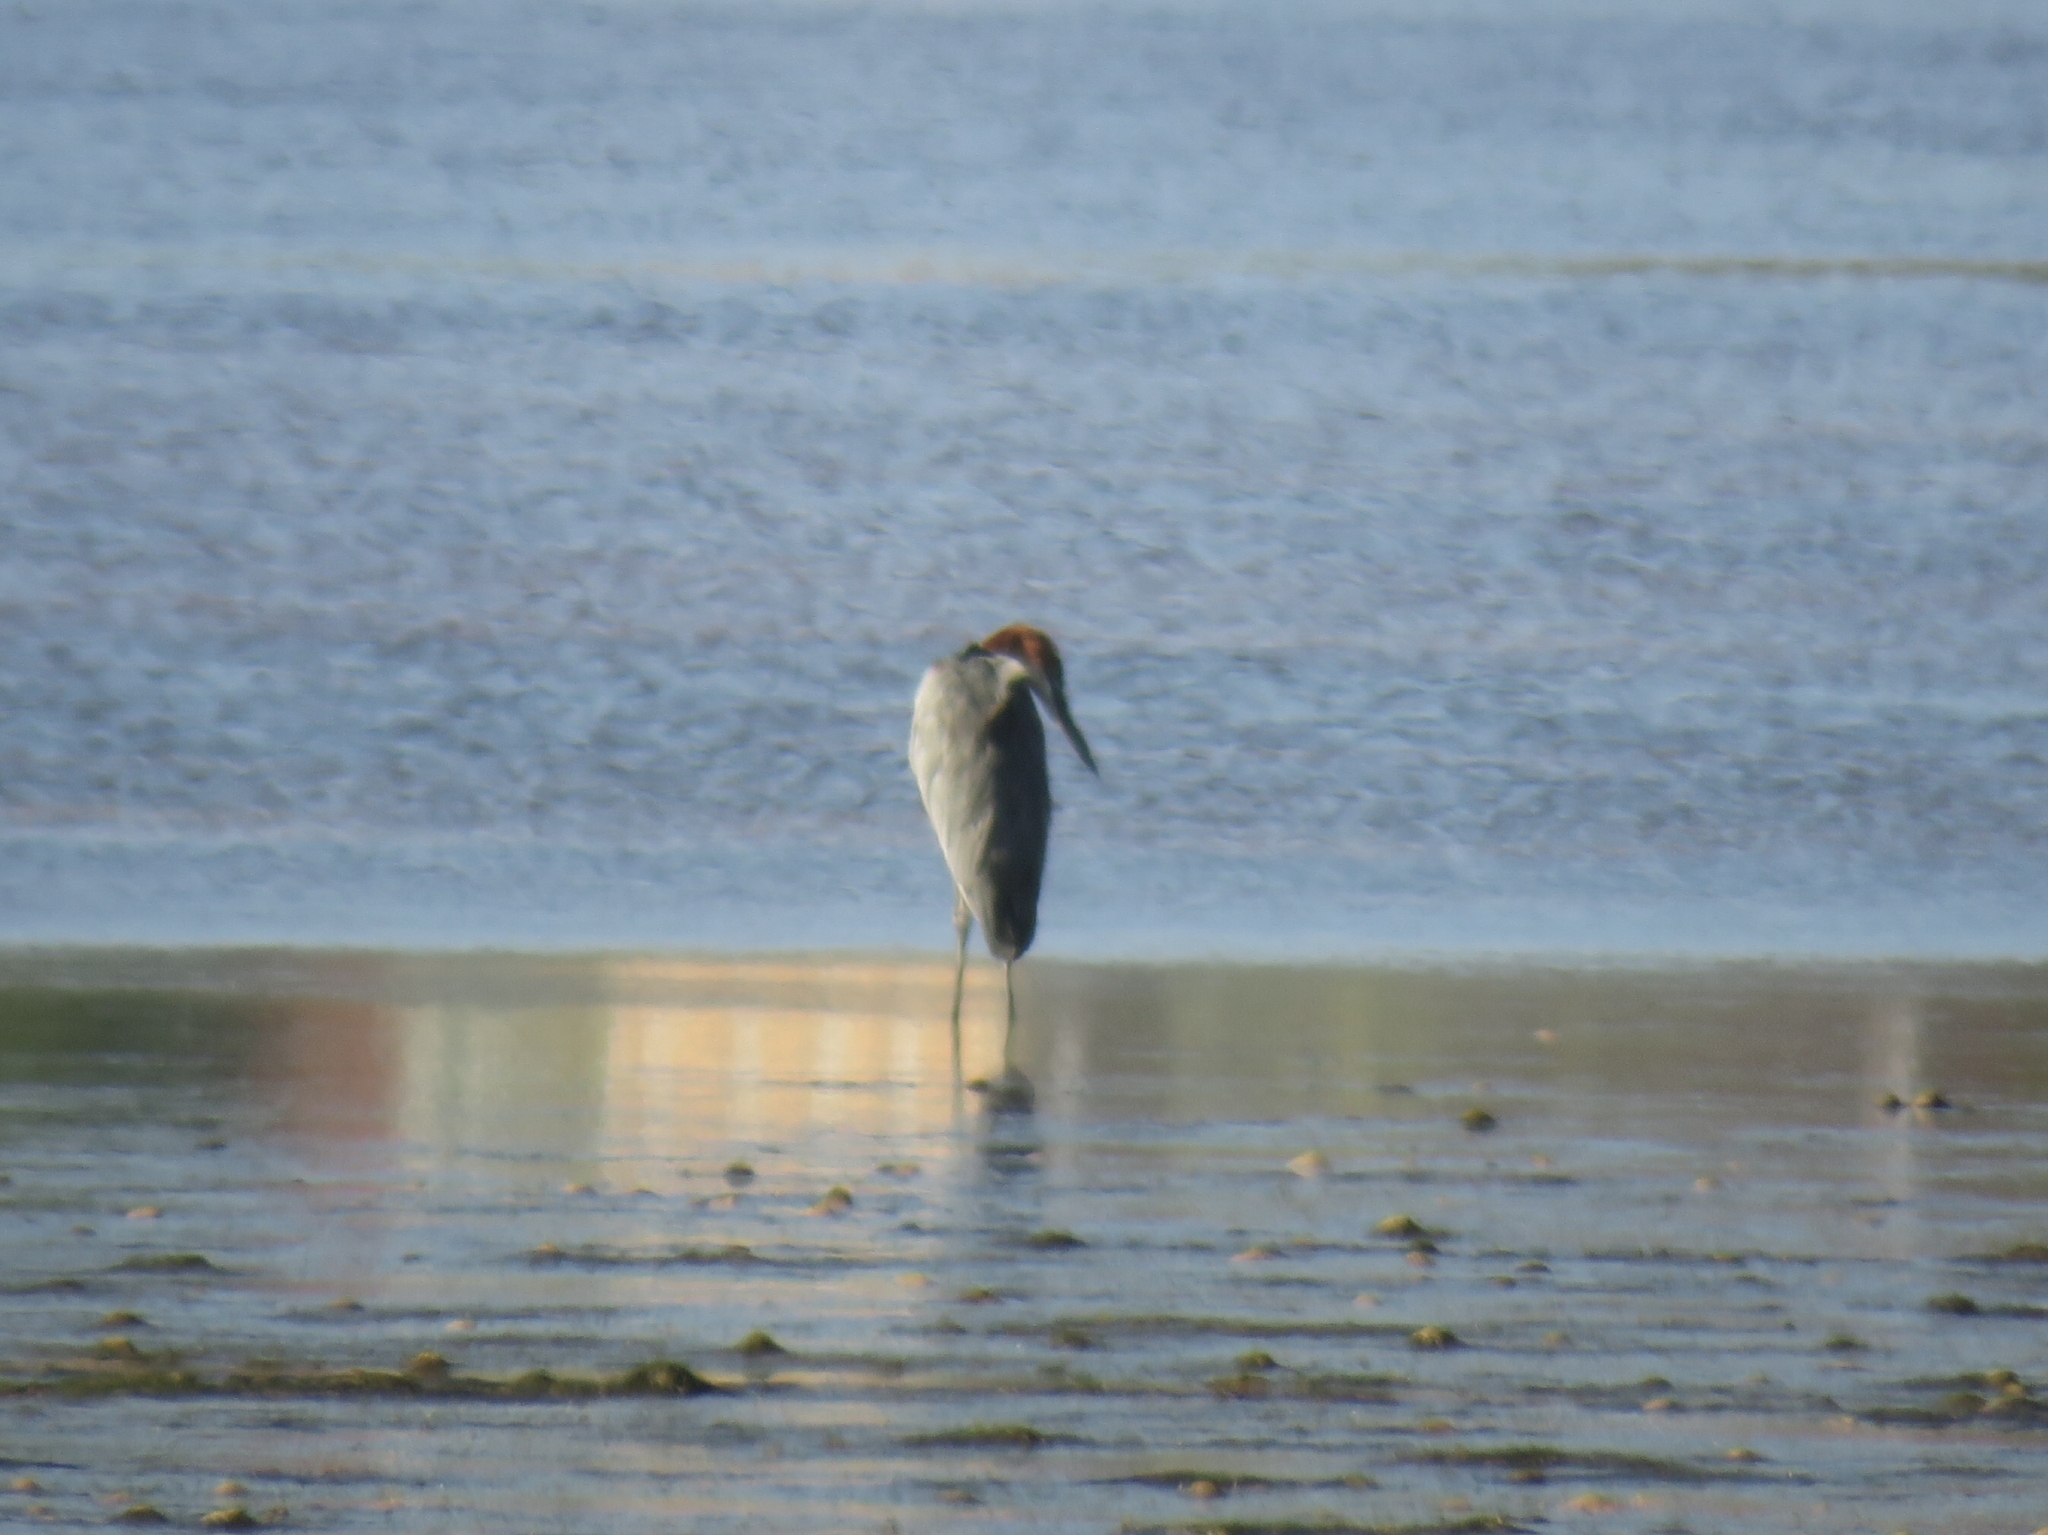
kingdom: Animalia
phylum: Chordata
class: Aves
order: Pelecaniformes
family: Ardeidae
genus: Ardea
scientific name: Ardea goliath
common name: Goliath heron
